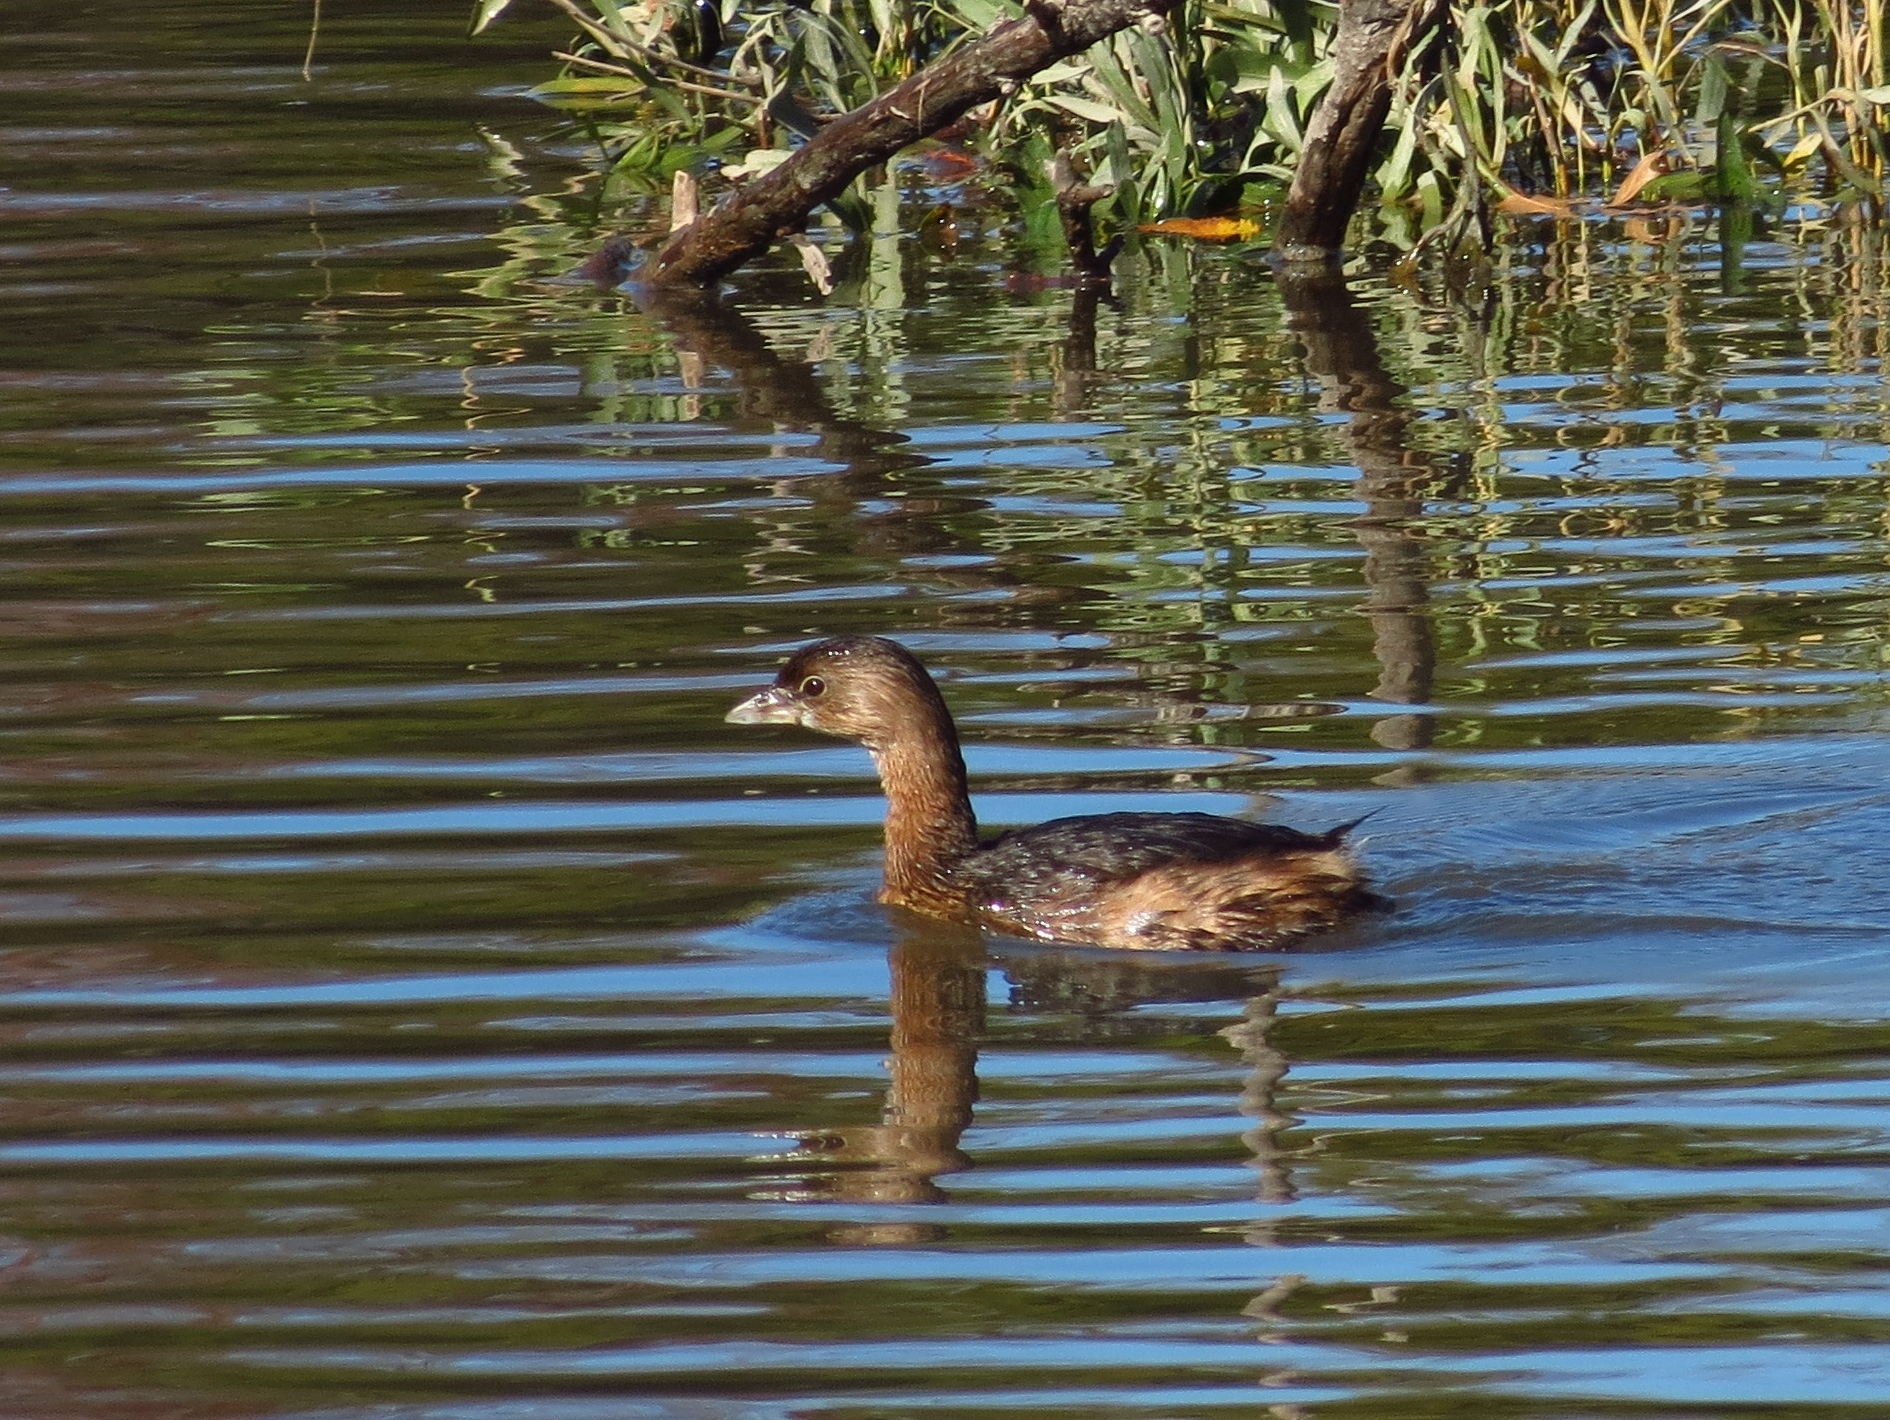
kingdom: Animalia
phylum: Chordata
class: Aves
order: Podicipediformes
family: Podicipedidae
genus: Podilymbus
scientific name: Podilymbus podiceps
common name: Pied-billed grebe
